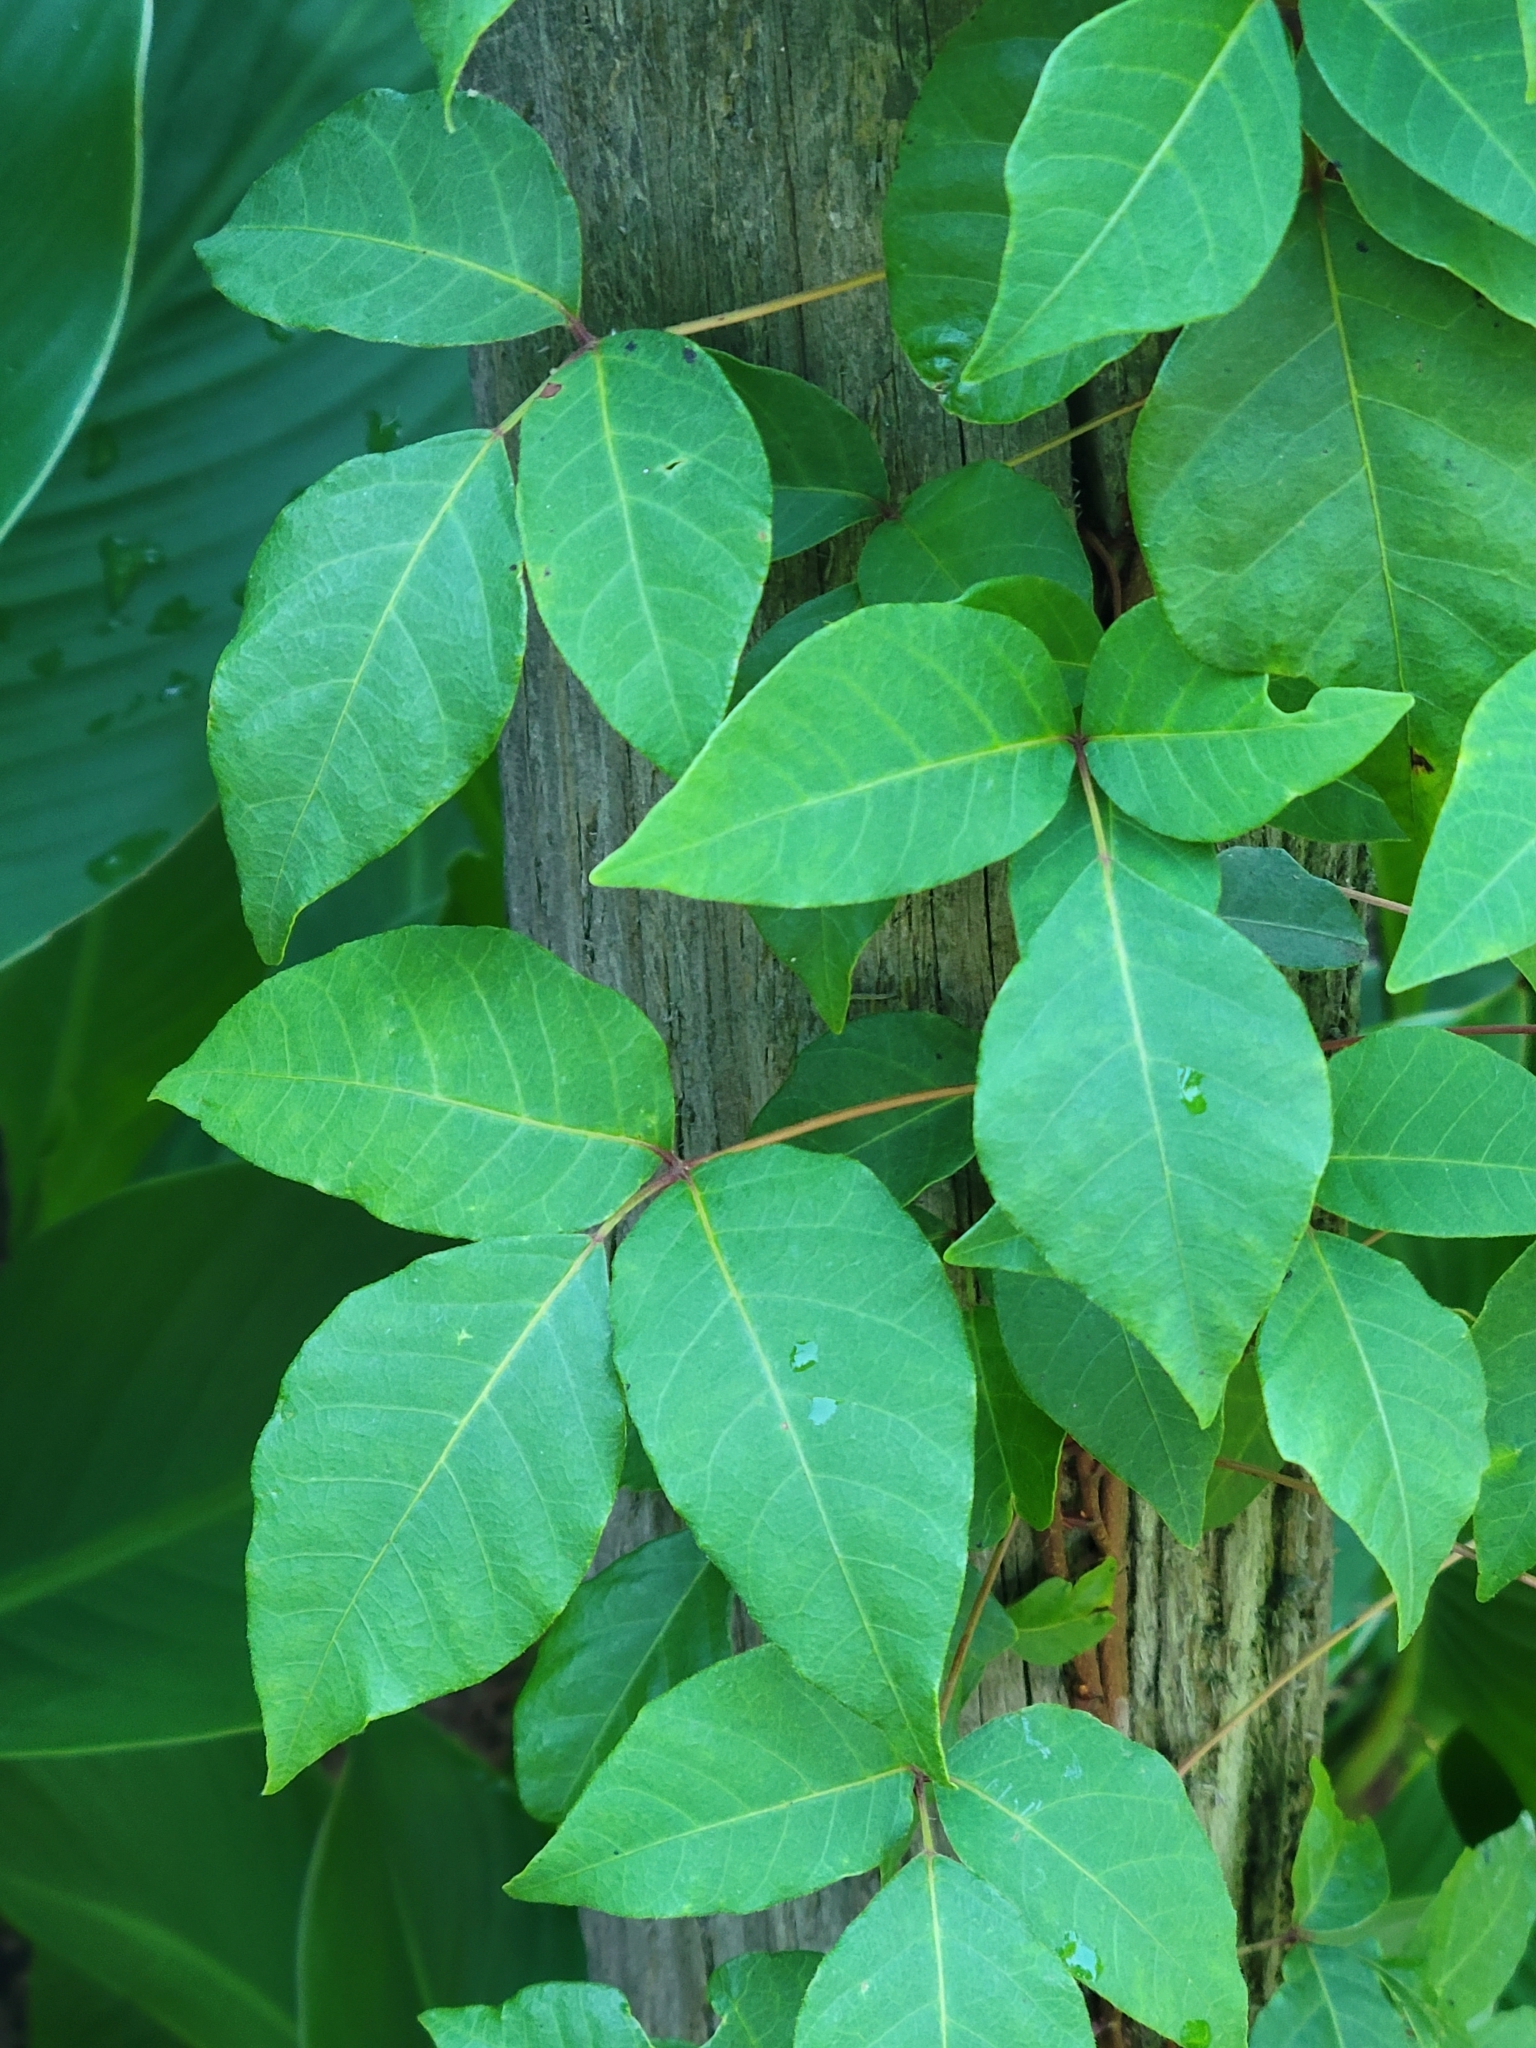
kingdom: Plantae
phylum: Tracheophyta
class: Magnoliopsida
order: Sapindales
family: Anacardiaceae
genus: Toxicodendron
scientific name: Toxicodendron radicans
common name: Poison ivy
